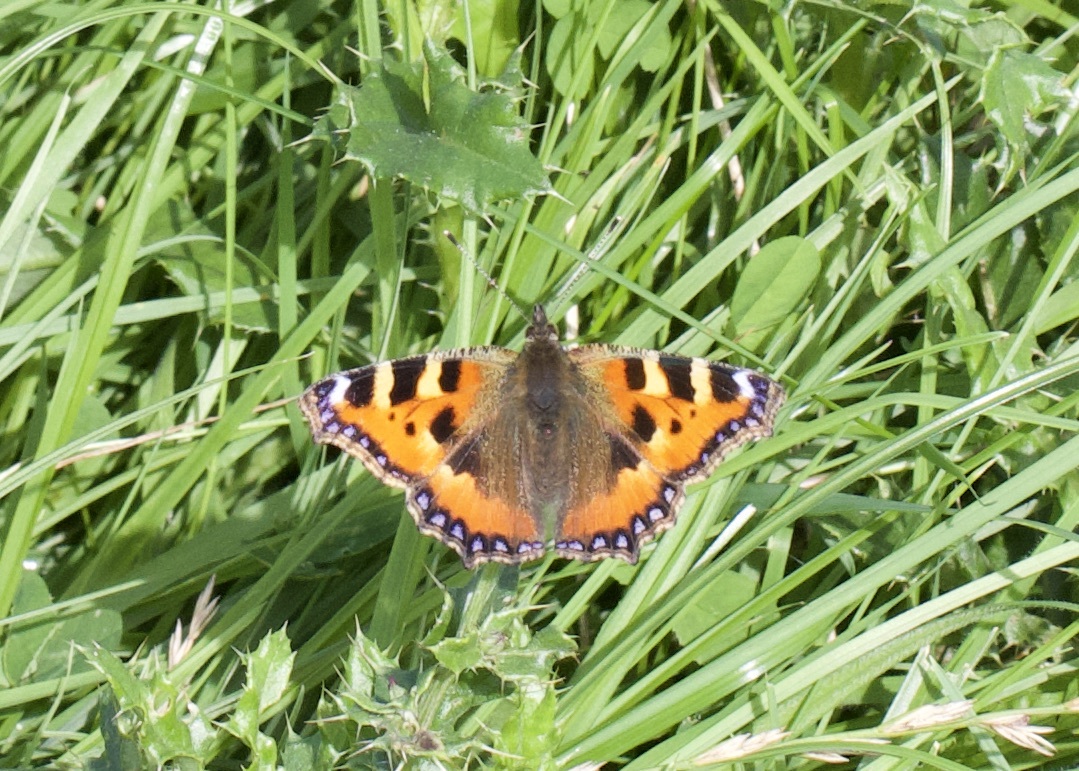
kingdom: Animalia
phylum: Arthropoda
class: Insecta
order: Lepidoptera
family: Nymphalidae
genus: Aglais
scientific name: Aglais urticae
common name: Small tortoiseshell
